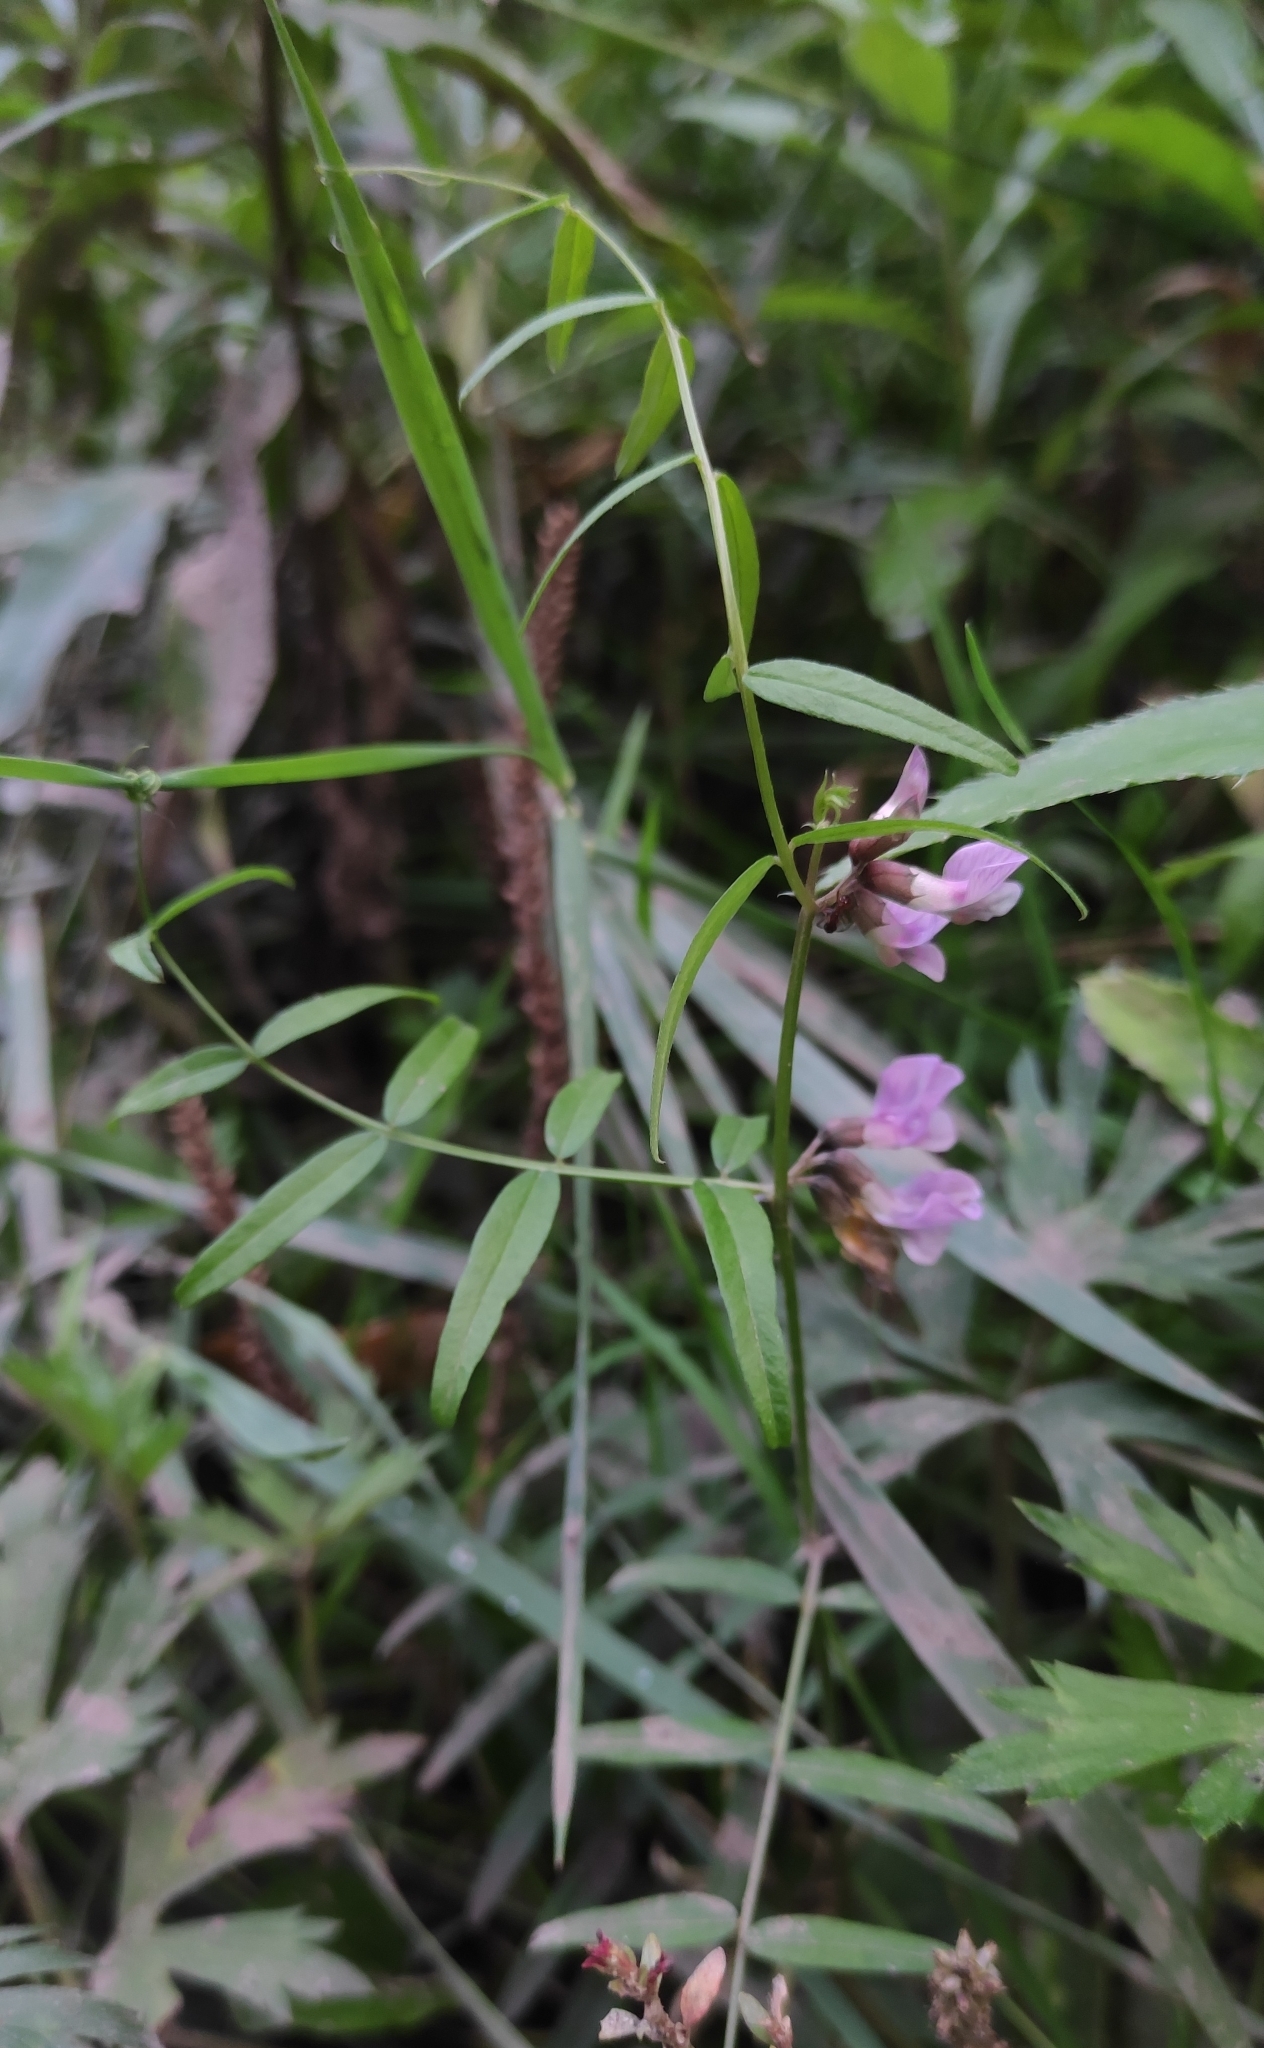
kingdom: Plantae
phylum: Tracheophyta
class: Magnoliopsida
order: Fabales
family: Fabaceae
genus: Vicia
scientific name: Vicia sepium
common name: Bush vetch
